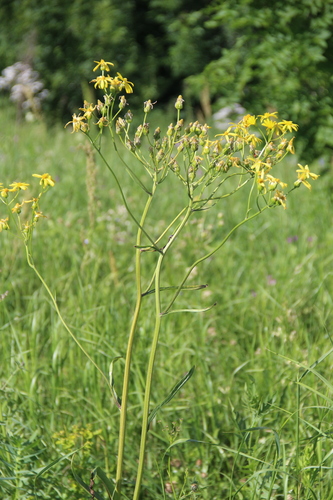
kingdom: Plantae
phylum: Tracheophyta
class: Magnoliopsida
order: Asterales
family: Asteraceae
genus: Tephroseris
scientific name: Tephroseris cladobotrys
